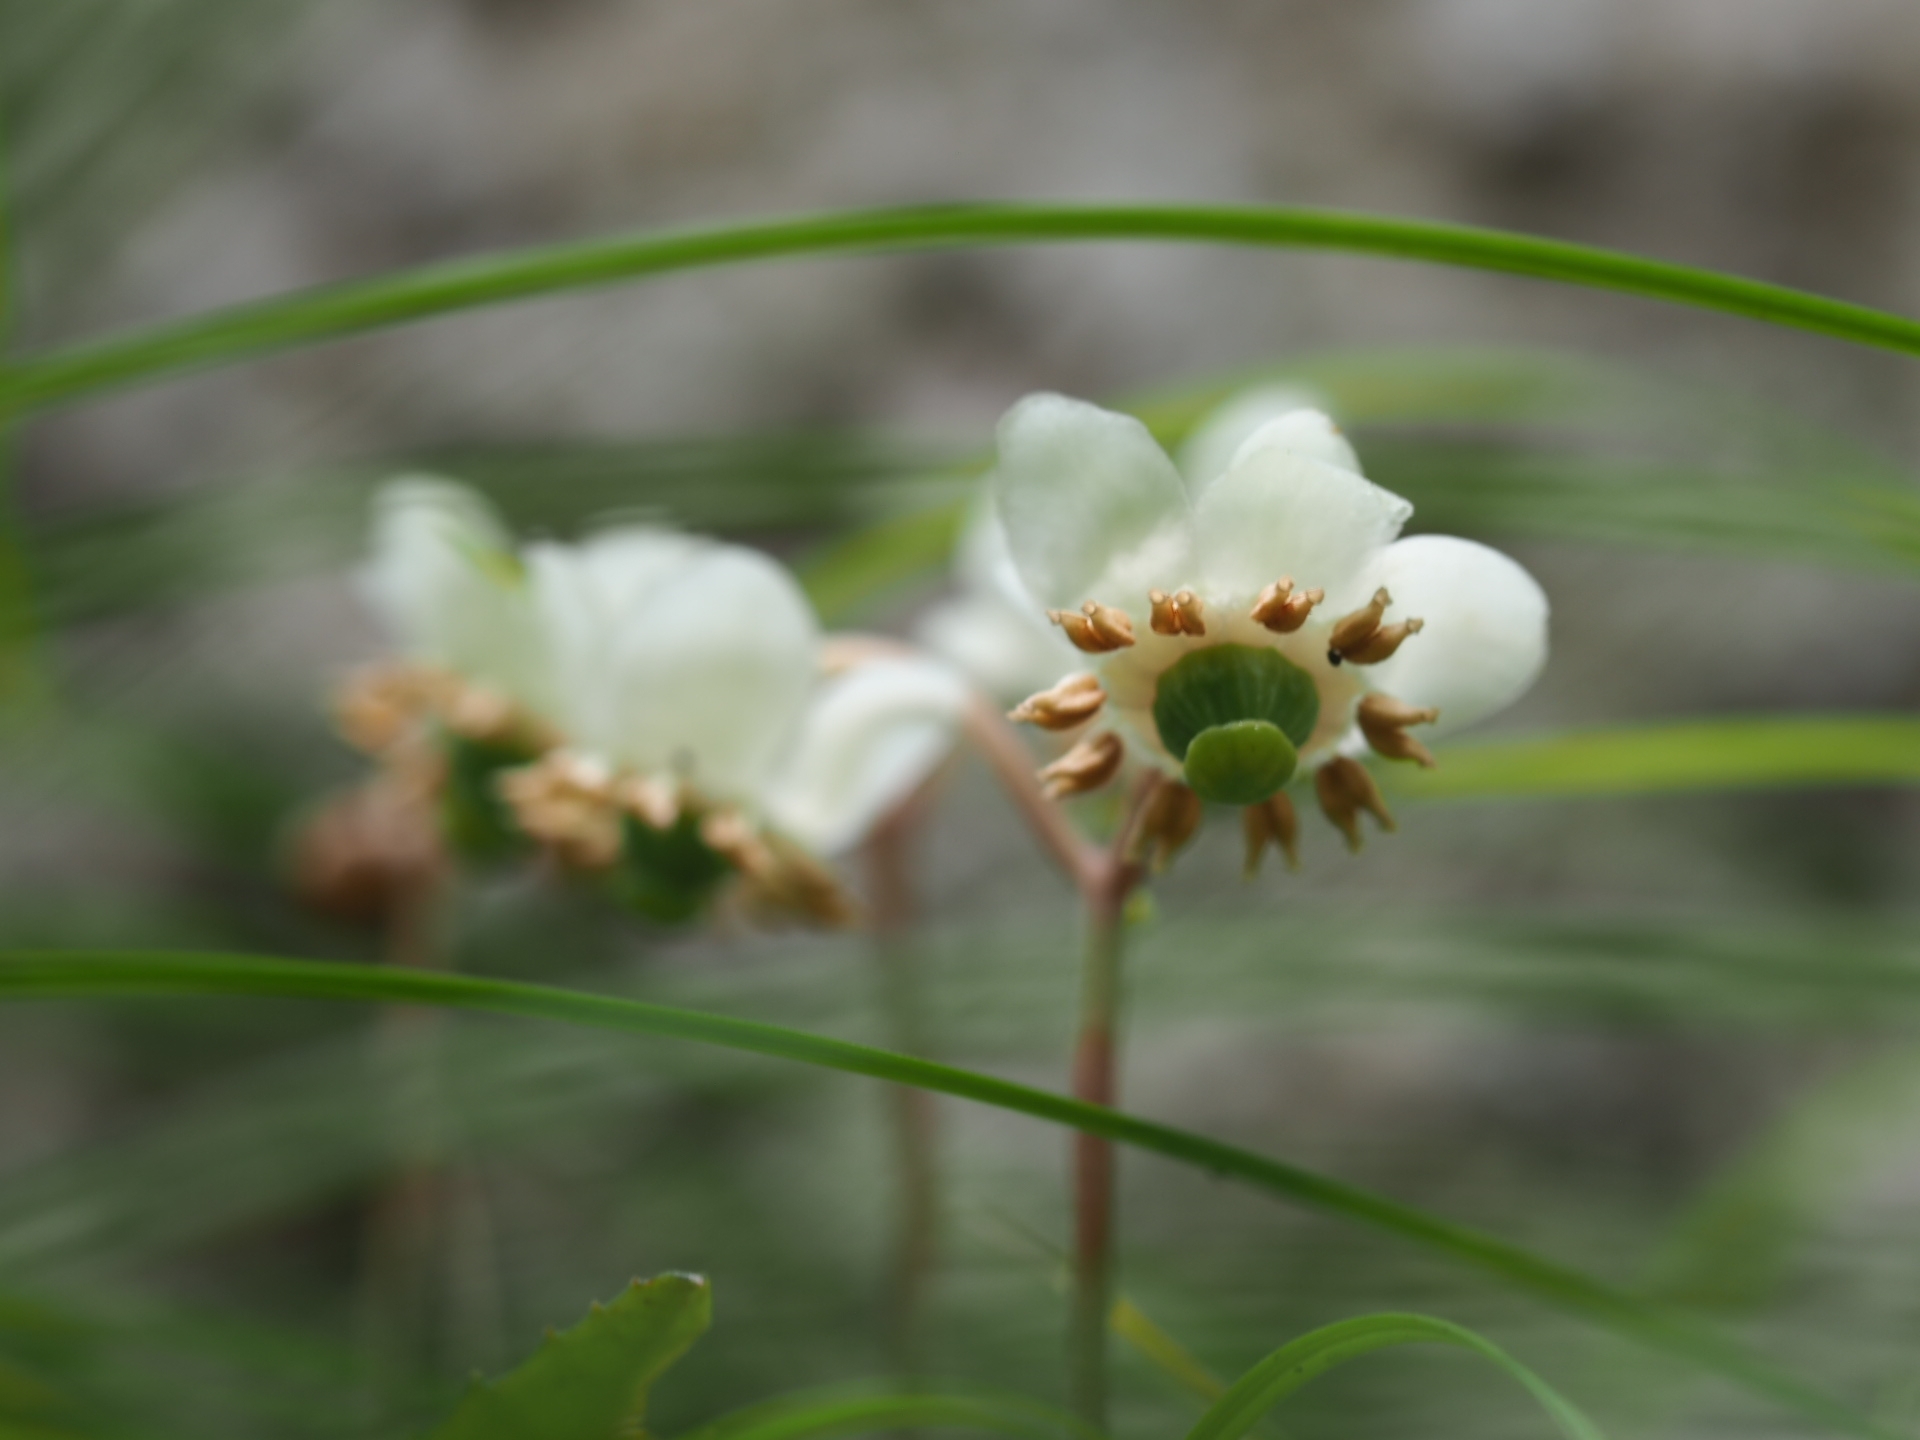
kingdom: Plantae
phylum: Tracheophyta
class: Magnoliopsida
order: Ericales
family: Ericaceae
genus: Chimaphila
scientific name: Chimaphila maculata
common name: Spotted pipsissewa
